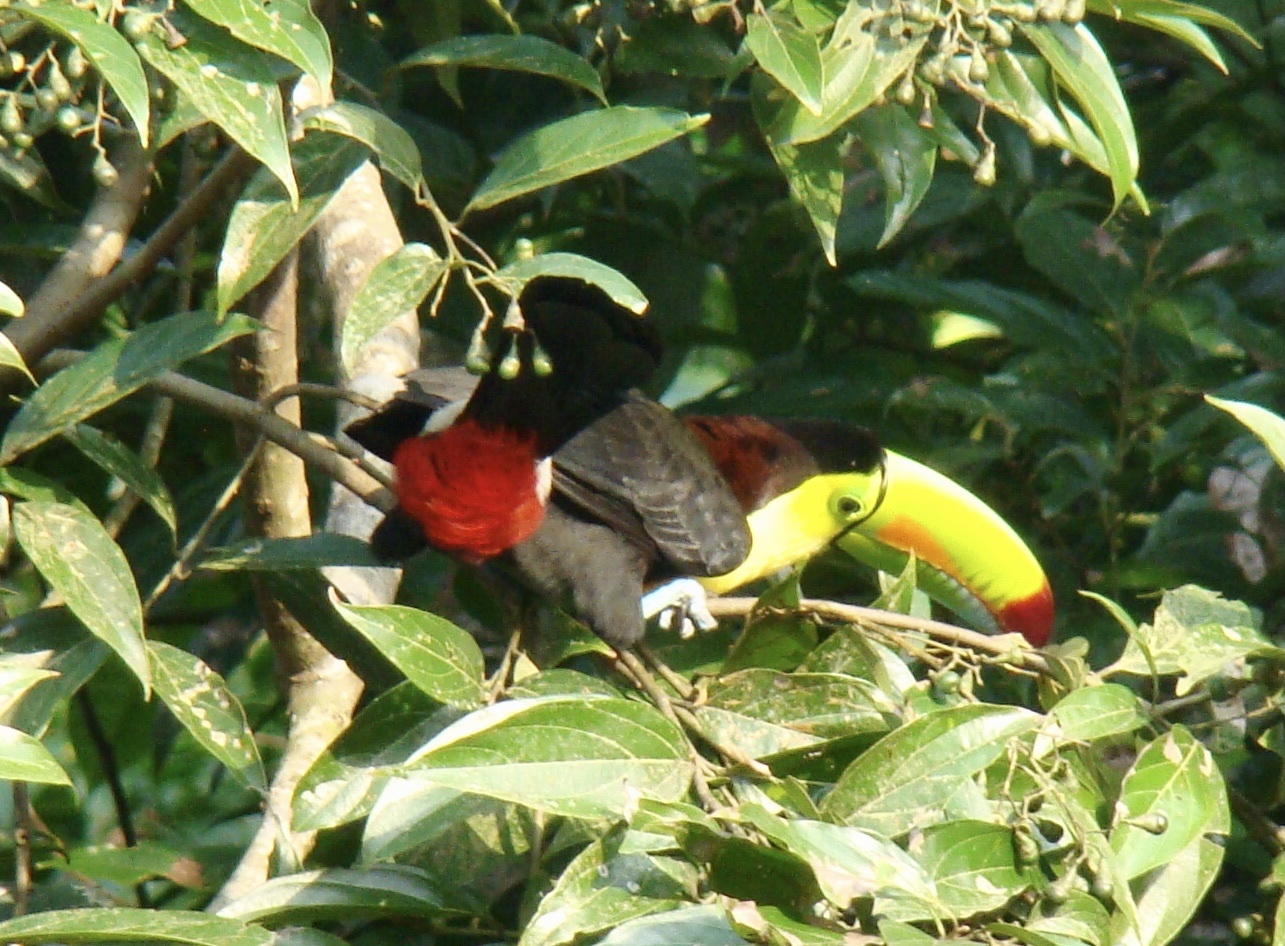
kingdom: Animalia
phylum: Chordata
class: Aves
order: Piciformes
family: Ramphastidae
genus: Ramphastos
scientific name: Ramphastos sulfuratus
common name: Keel-billed toucan
